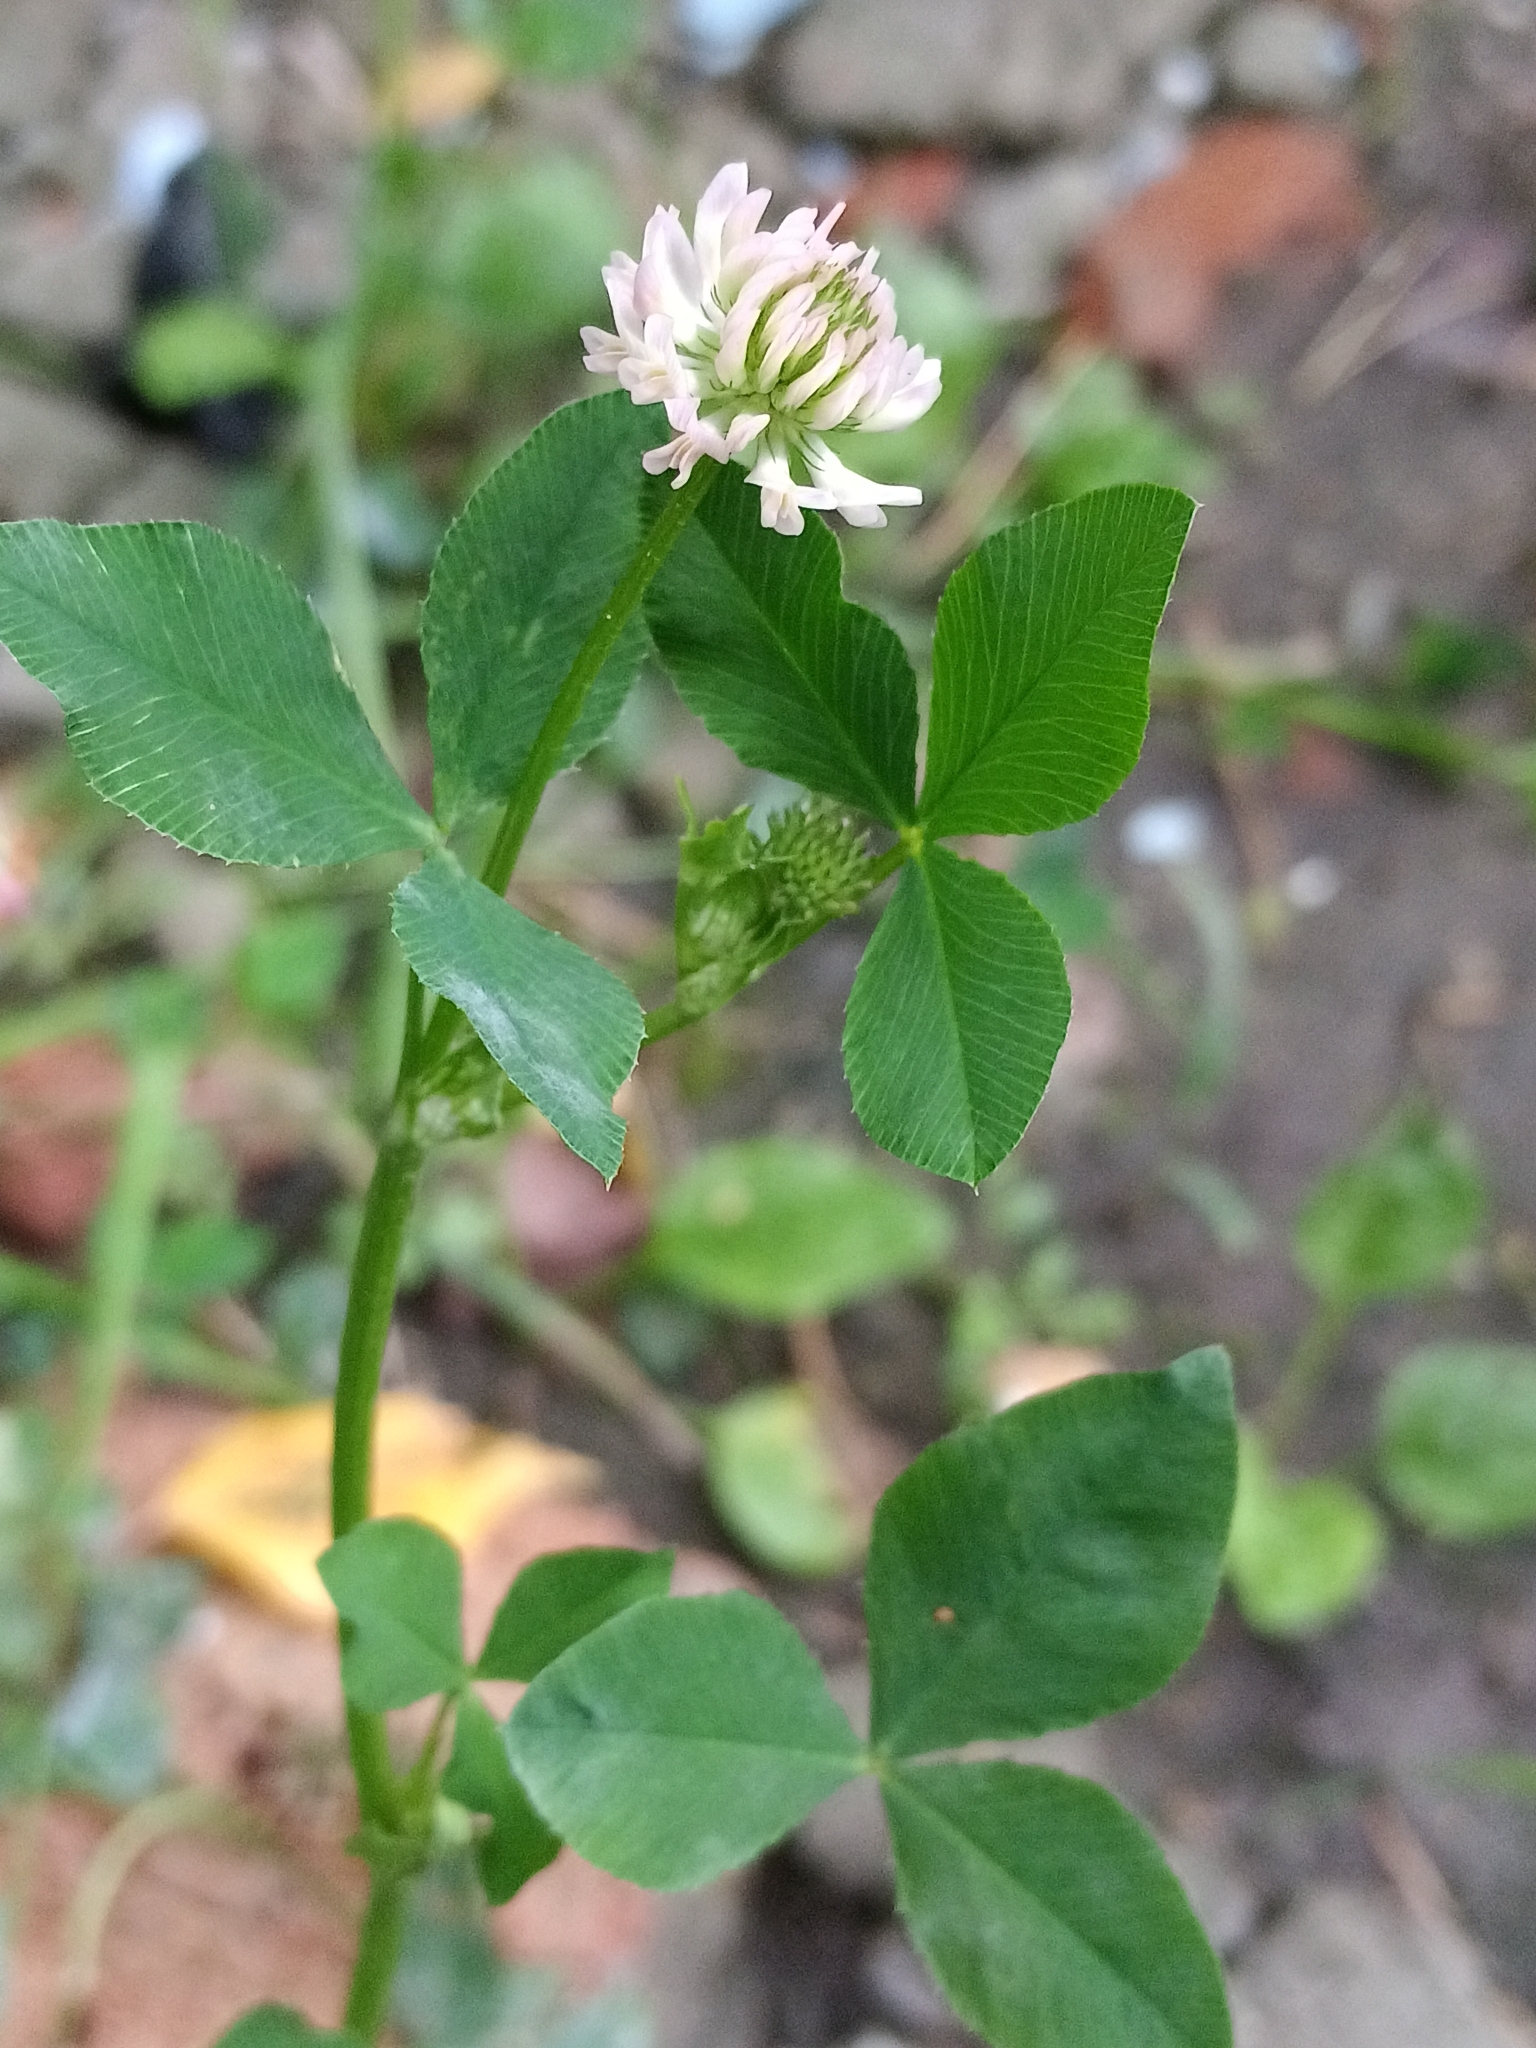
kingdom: Plantae
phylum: Tracheophyta
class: Magnoliopsida
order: Fabales
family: Fabaceae
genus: Trifolium
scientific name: Trifolium hybridum
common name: Alsike clover
